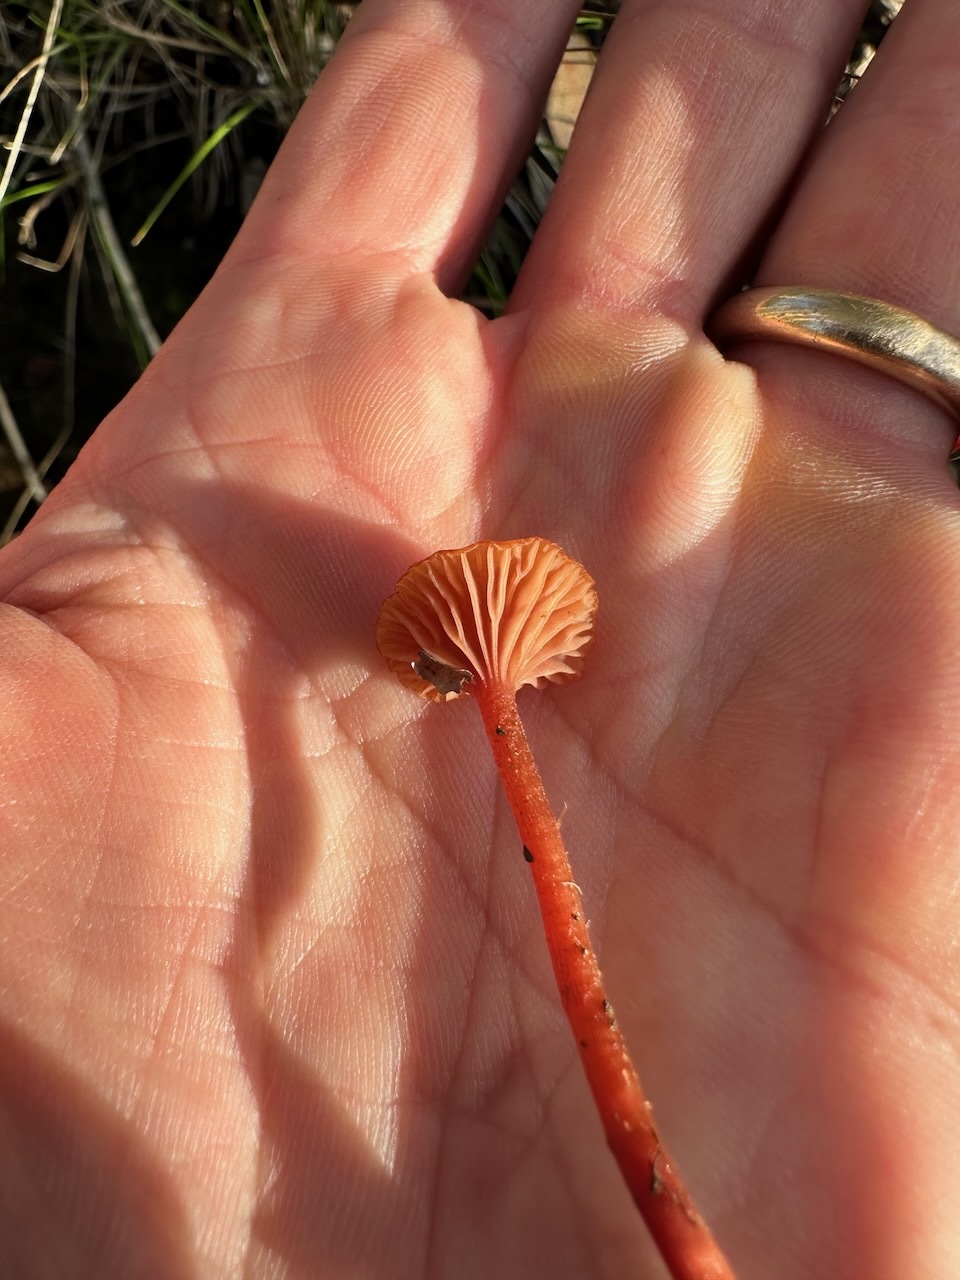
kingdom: Fungi
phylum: Basidiomycota
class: Agaricomycetes
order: Agaricales
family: Hydnangiaceae
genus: Laccaria
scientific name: Laccaria fraterna
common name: Gumtree deceiver
